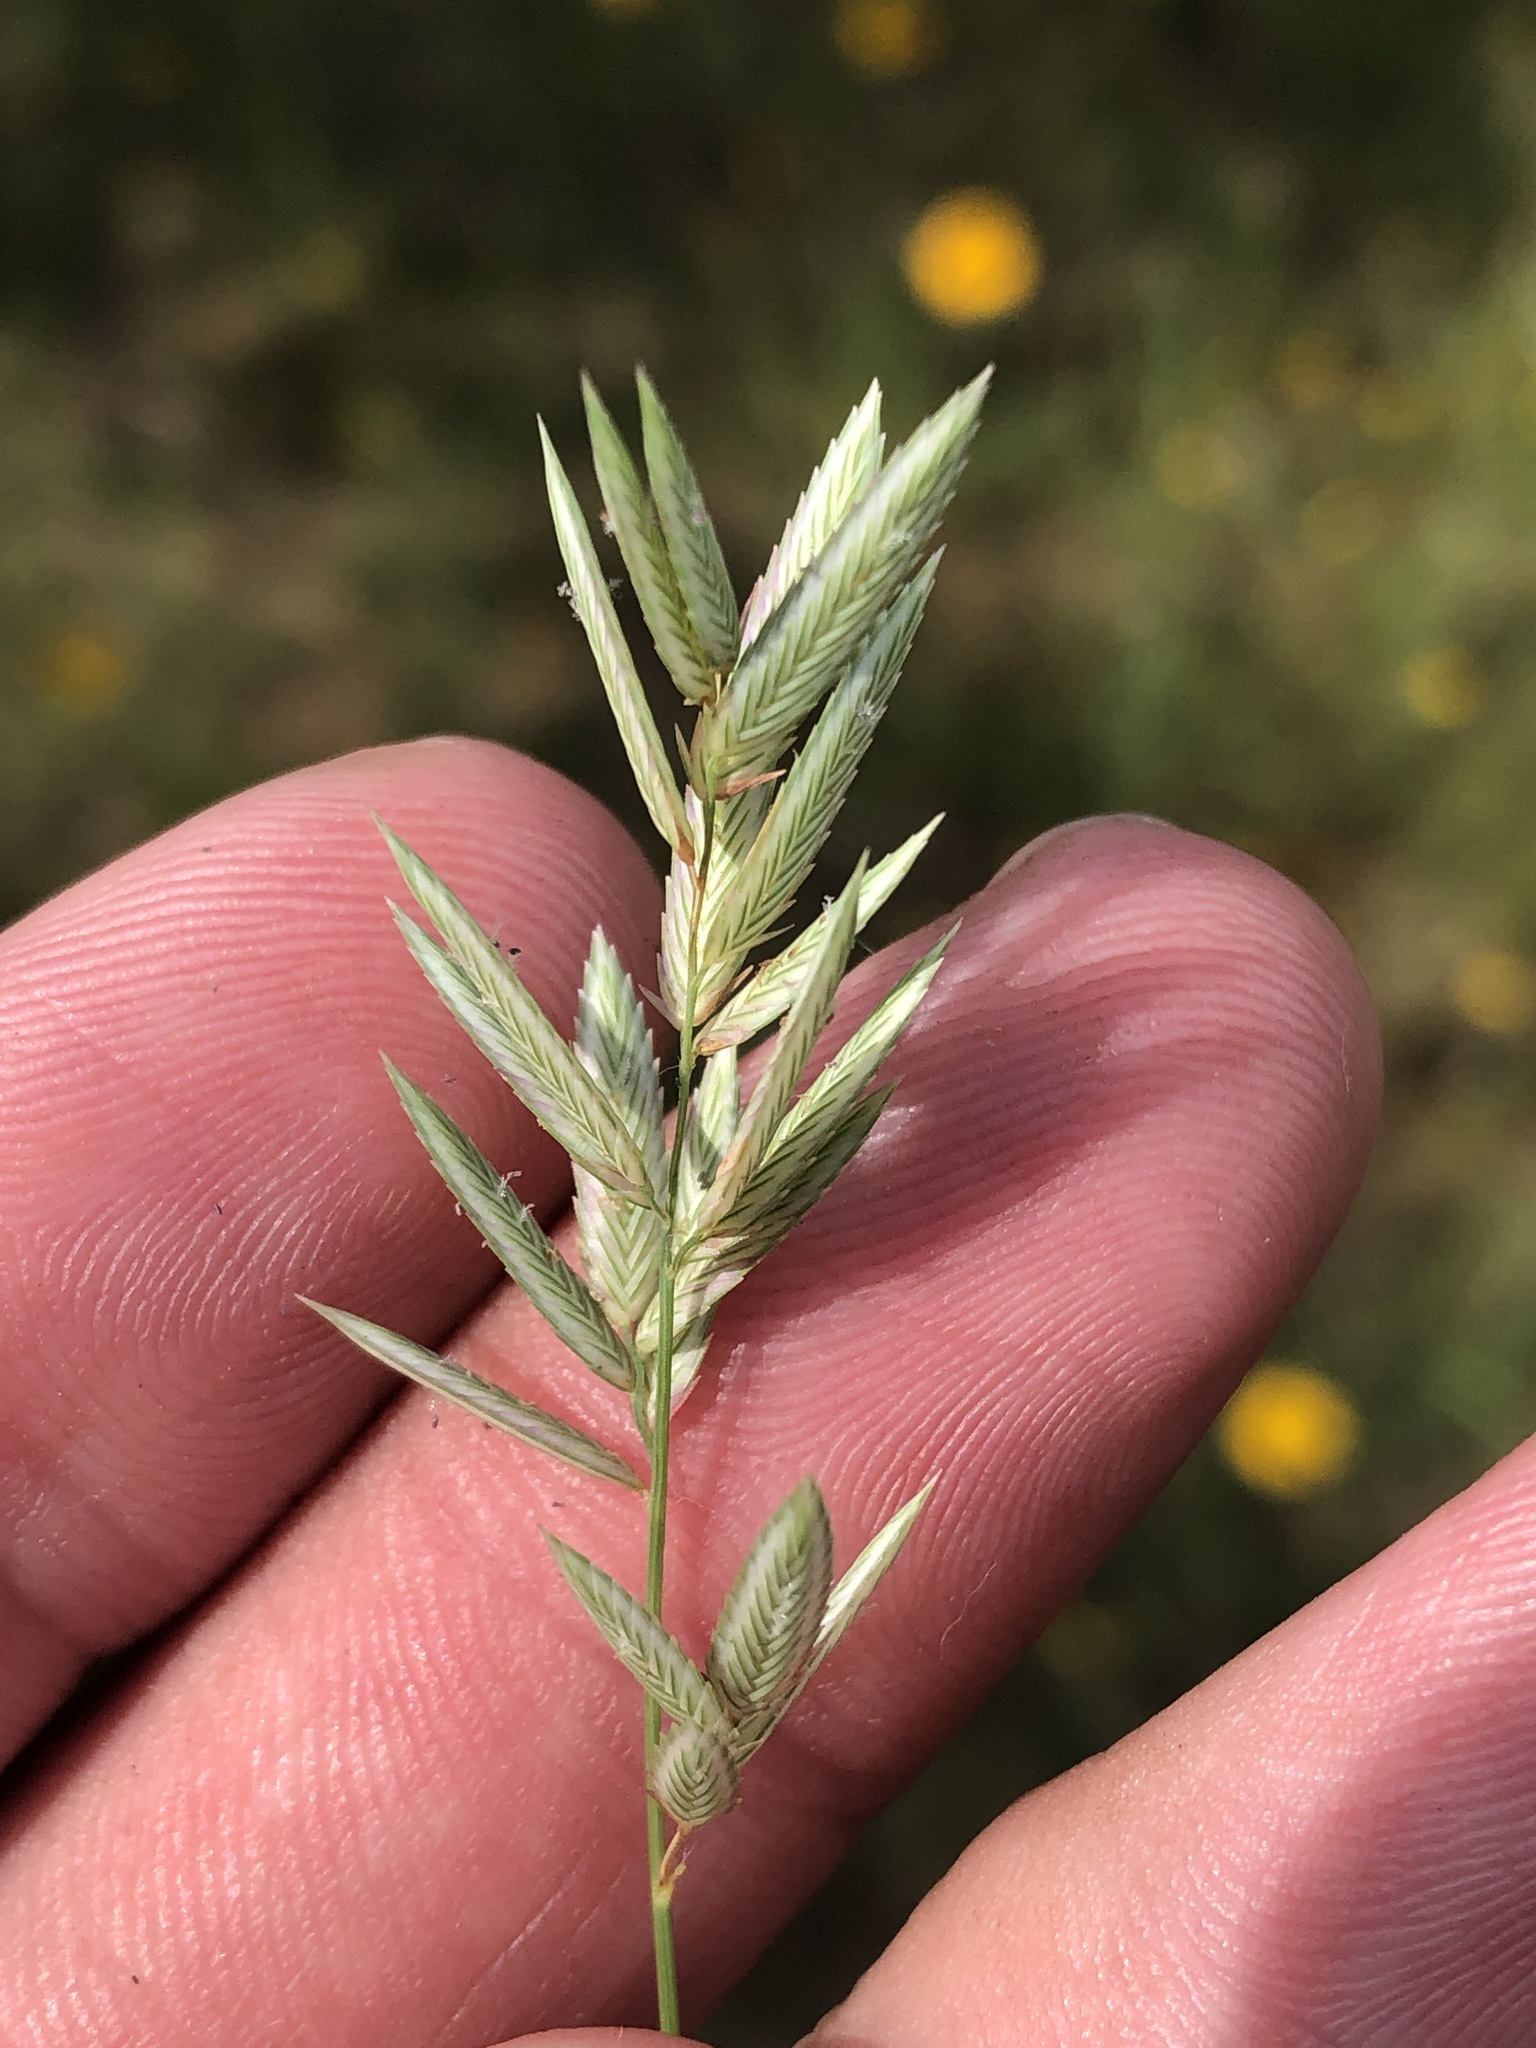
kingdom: Plantae
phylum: Tracheophyta
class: Liliopsida
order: Poales
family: Poaceae
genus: Eragrostis
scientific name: Eragrostis secundiflora
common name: Red love grass
